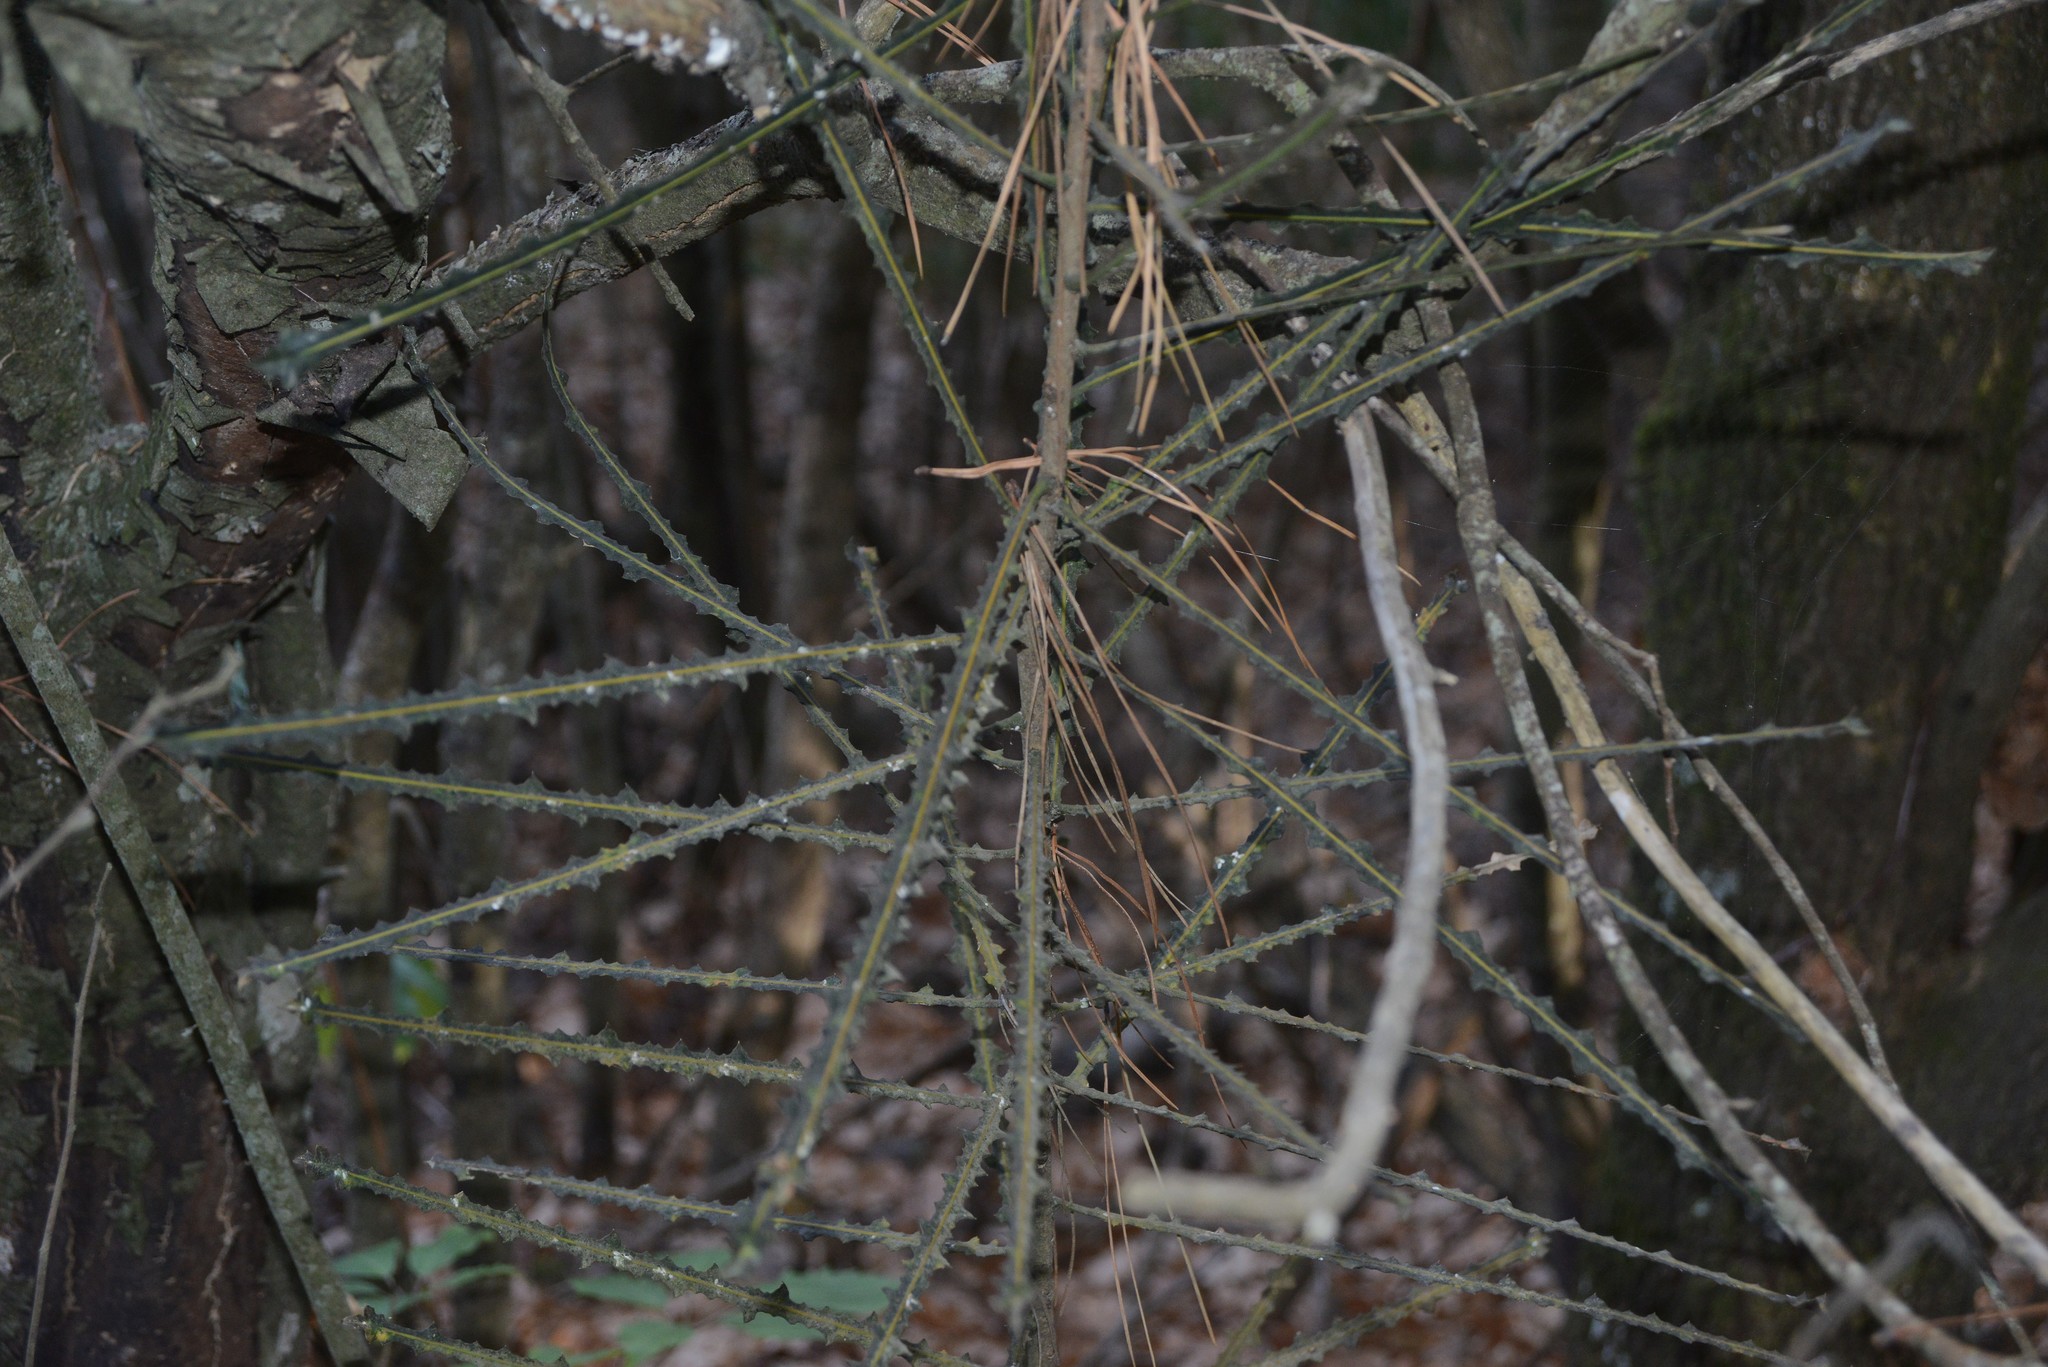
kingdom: Plantae
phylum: Tracheophyta
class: Magnoliopsida
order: Apiales
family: Araliaceae
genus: Pseudopanax
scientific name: Pseudopanax ferox
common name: Fierce lancewood
